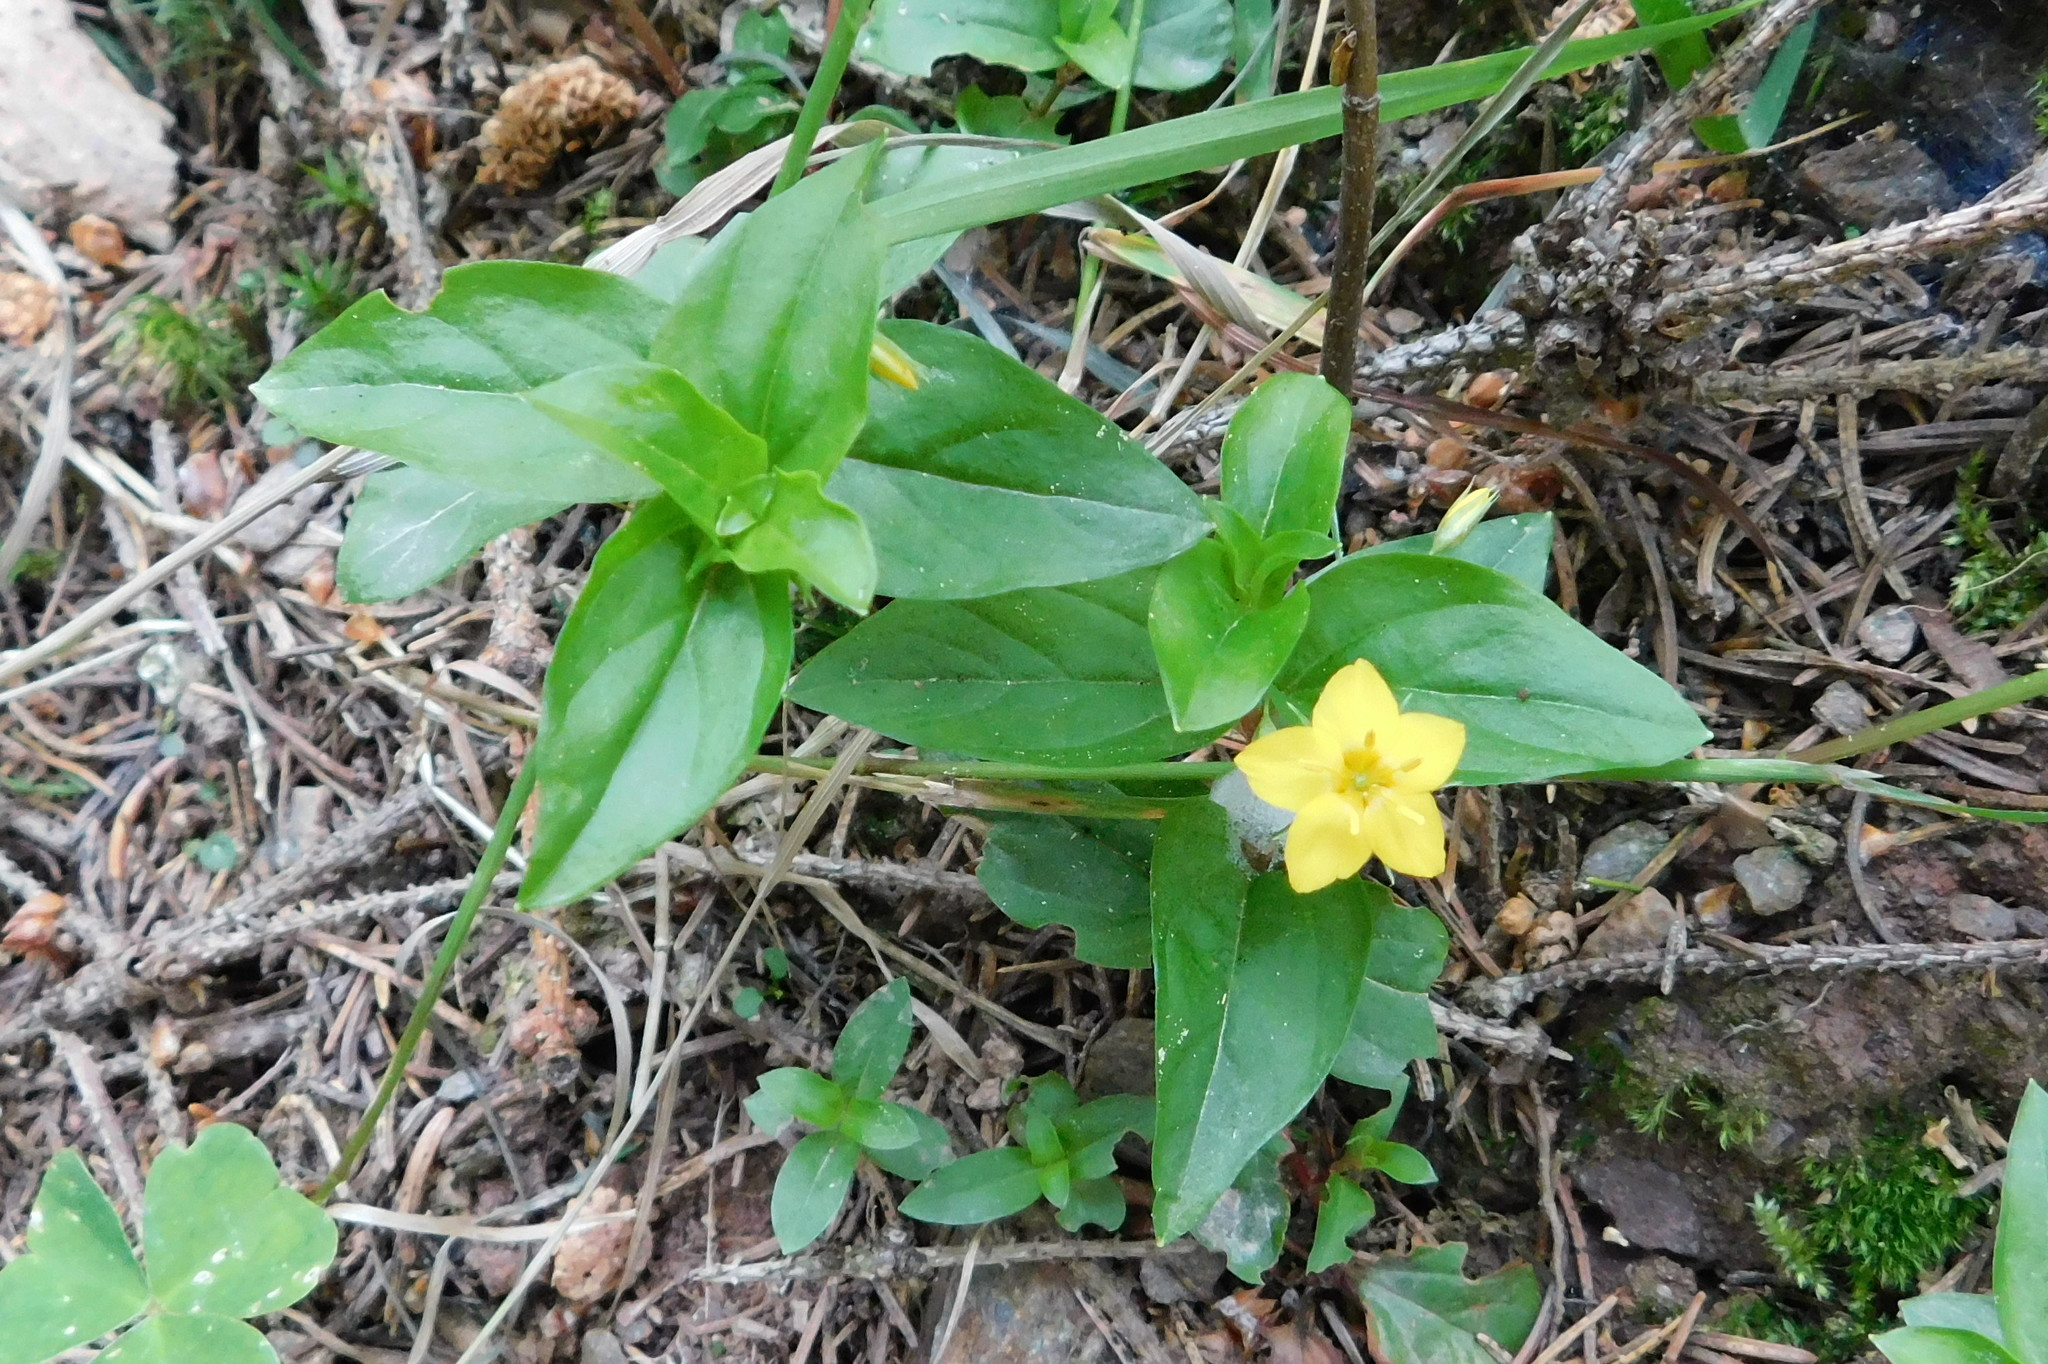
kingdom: Plantae
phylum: Tracheophyta
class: Magnoliopsida
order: Ericales
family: Primulaceae
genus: Lysimachia
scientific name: Lysimachia nemorum
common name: Yellow pimpernel
